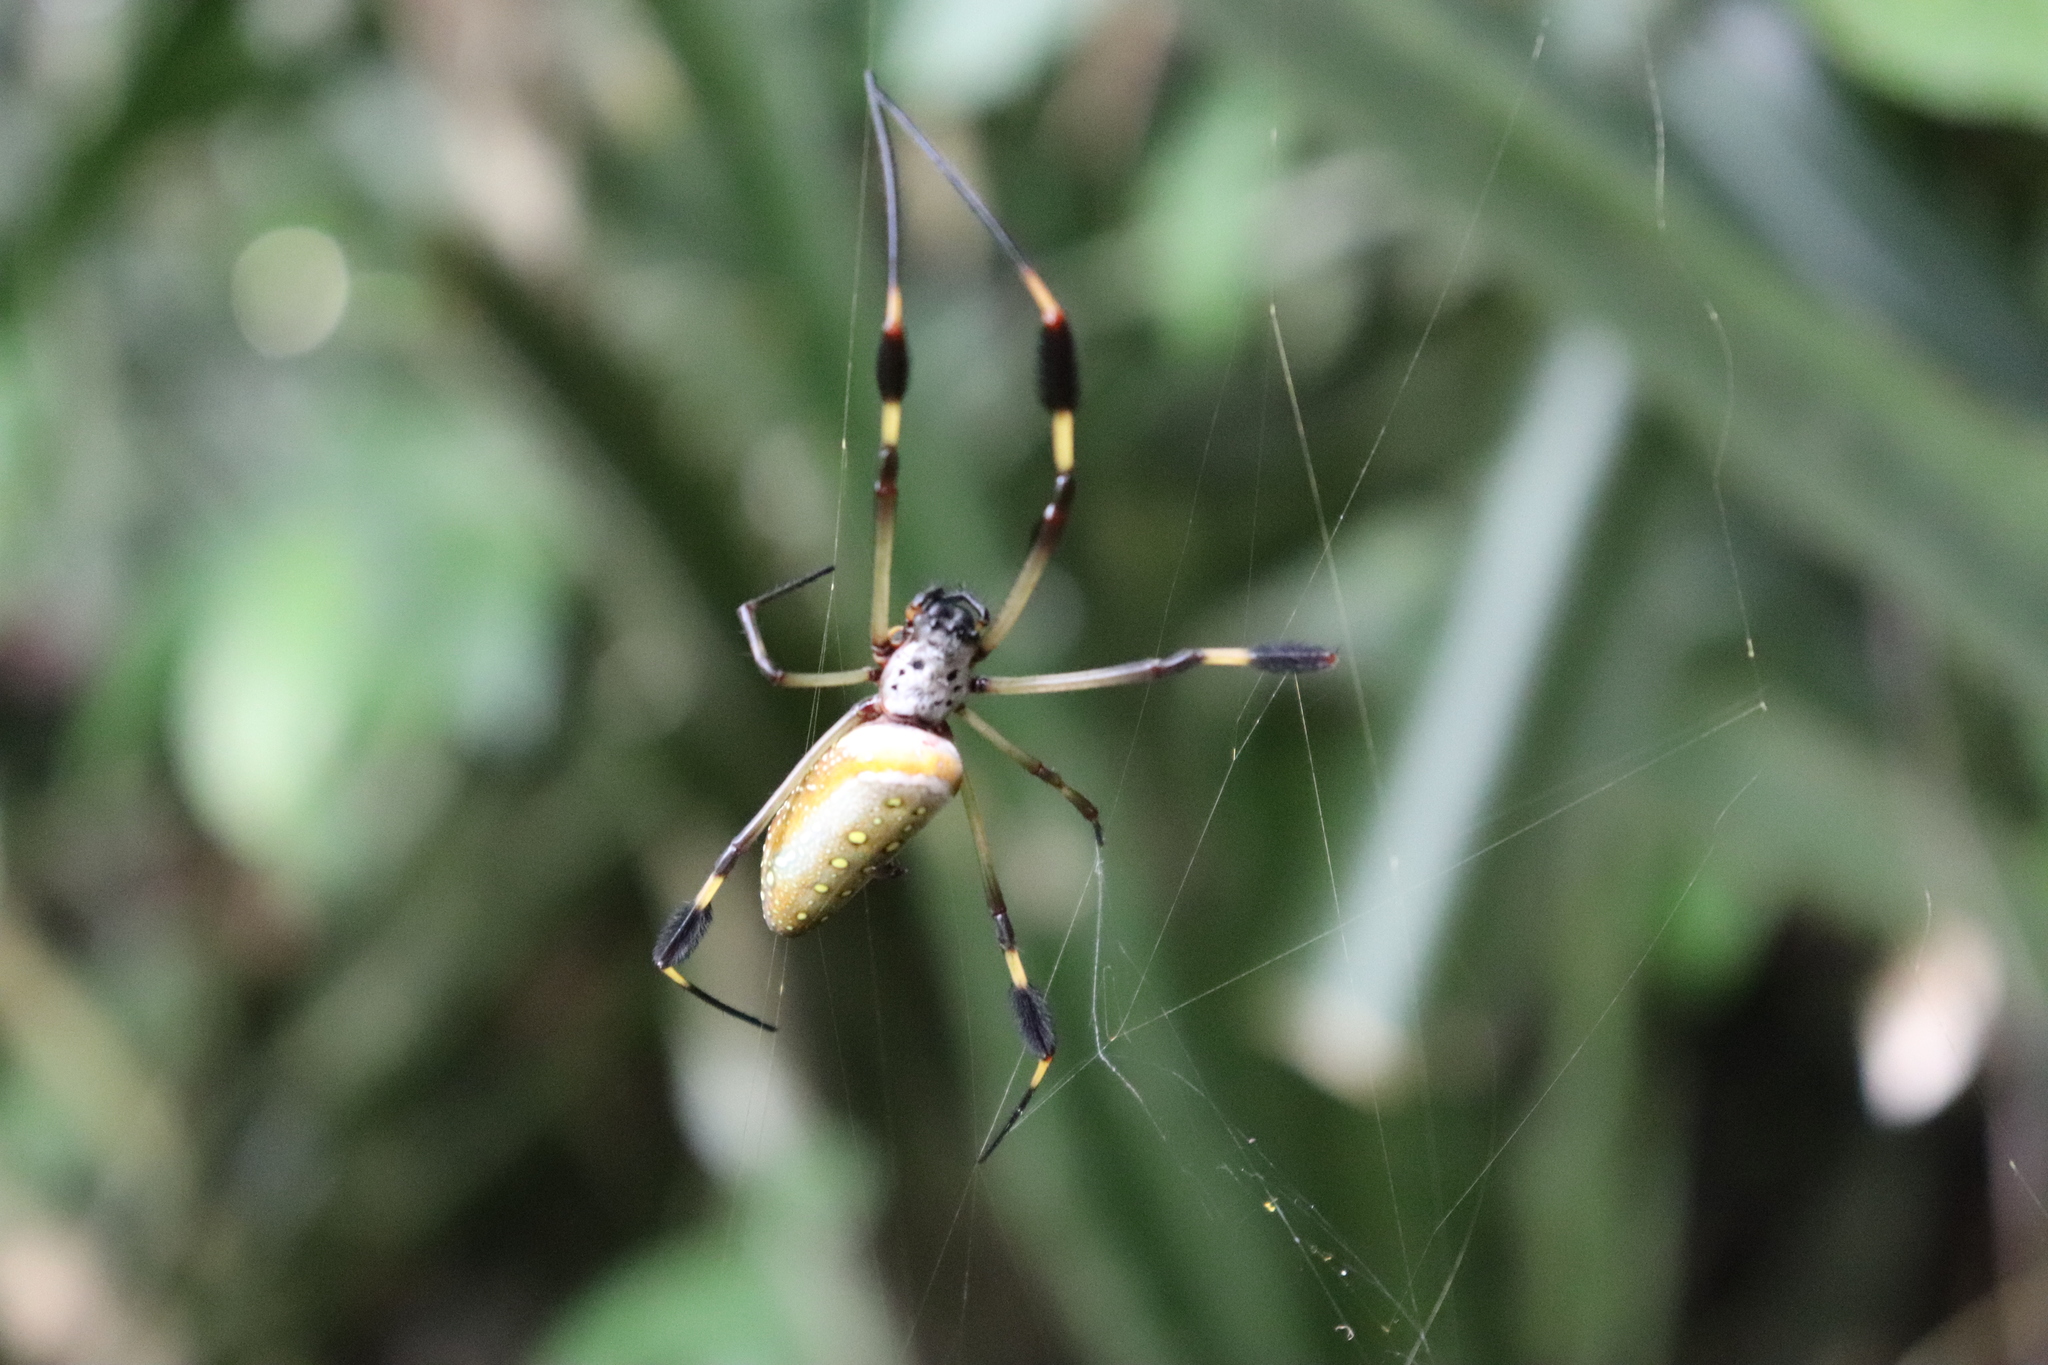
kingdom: Animalia
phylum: Arthropoda
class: Arachnida
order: Araneae
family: Araneidae
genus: Trichonephila
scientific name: Trichonephila clavipes
